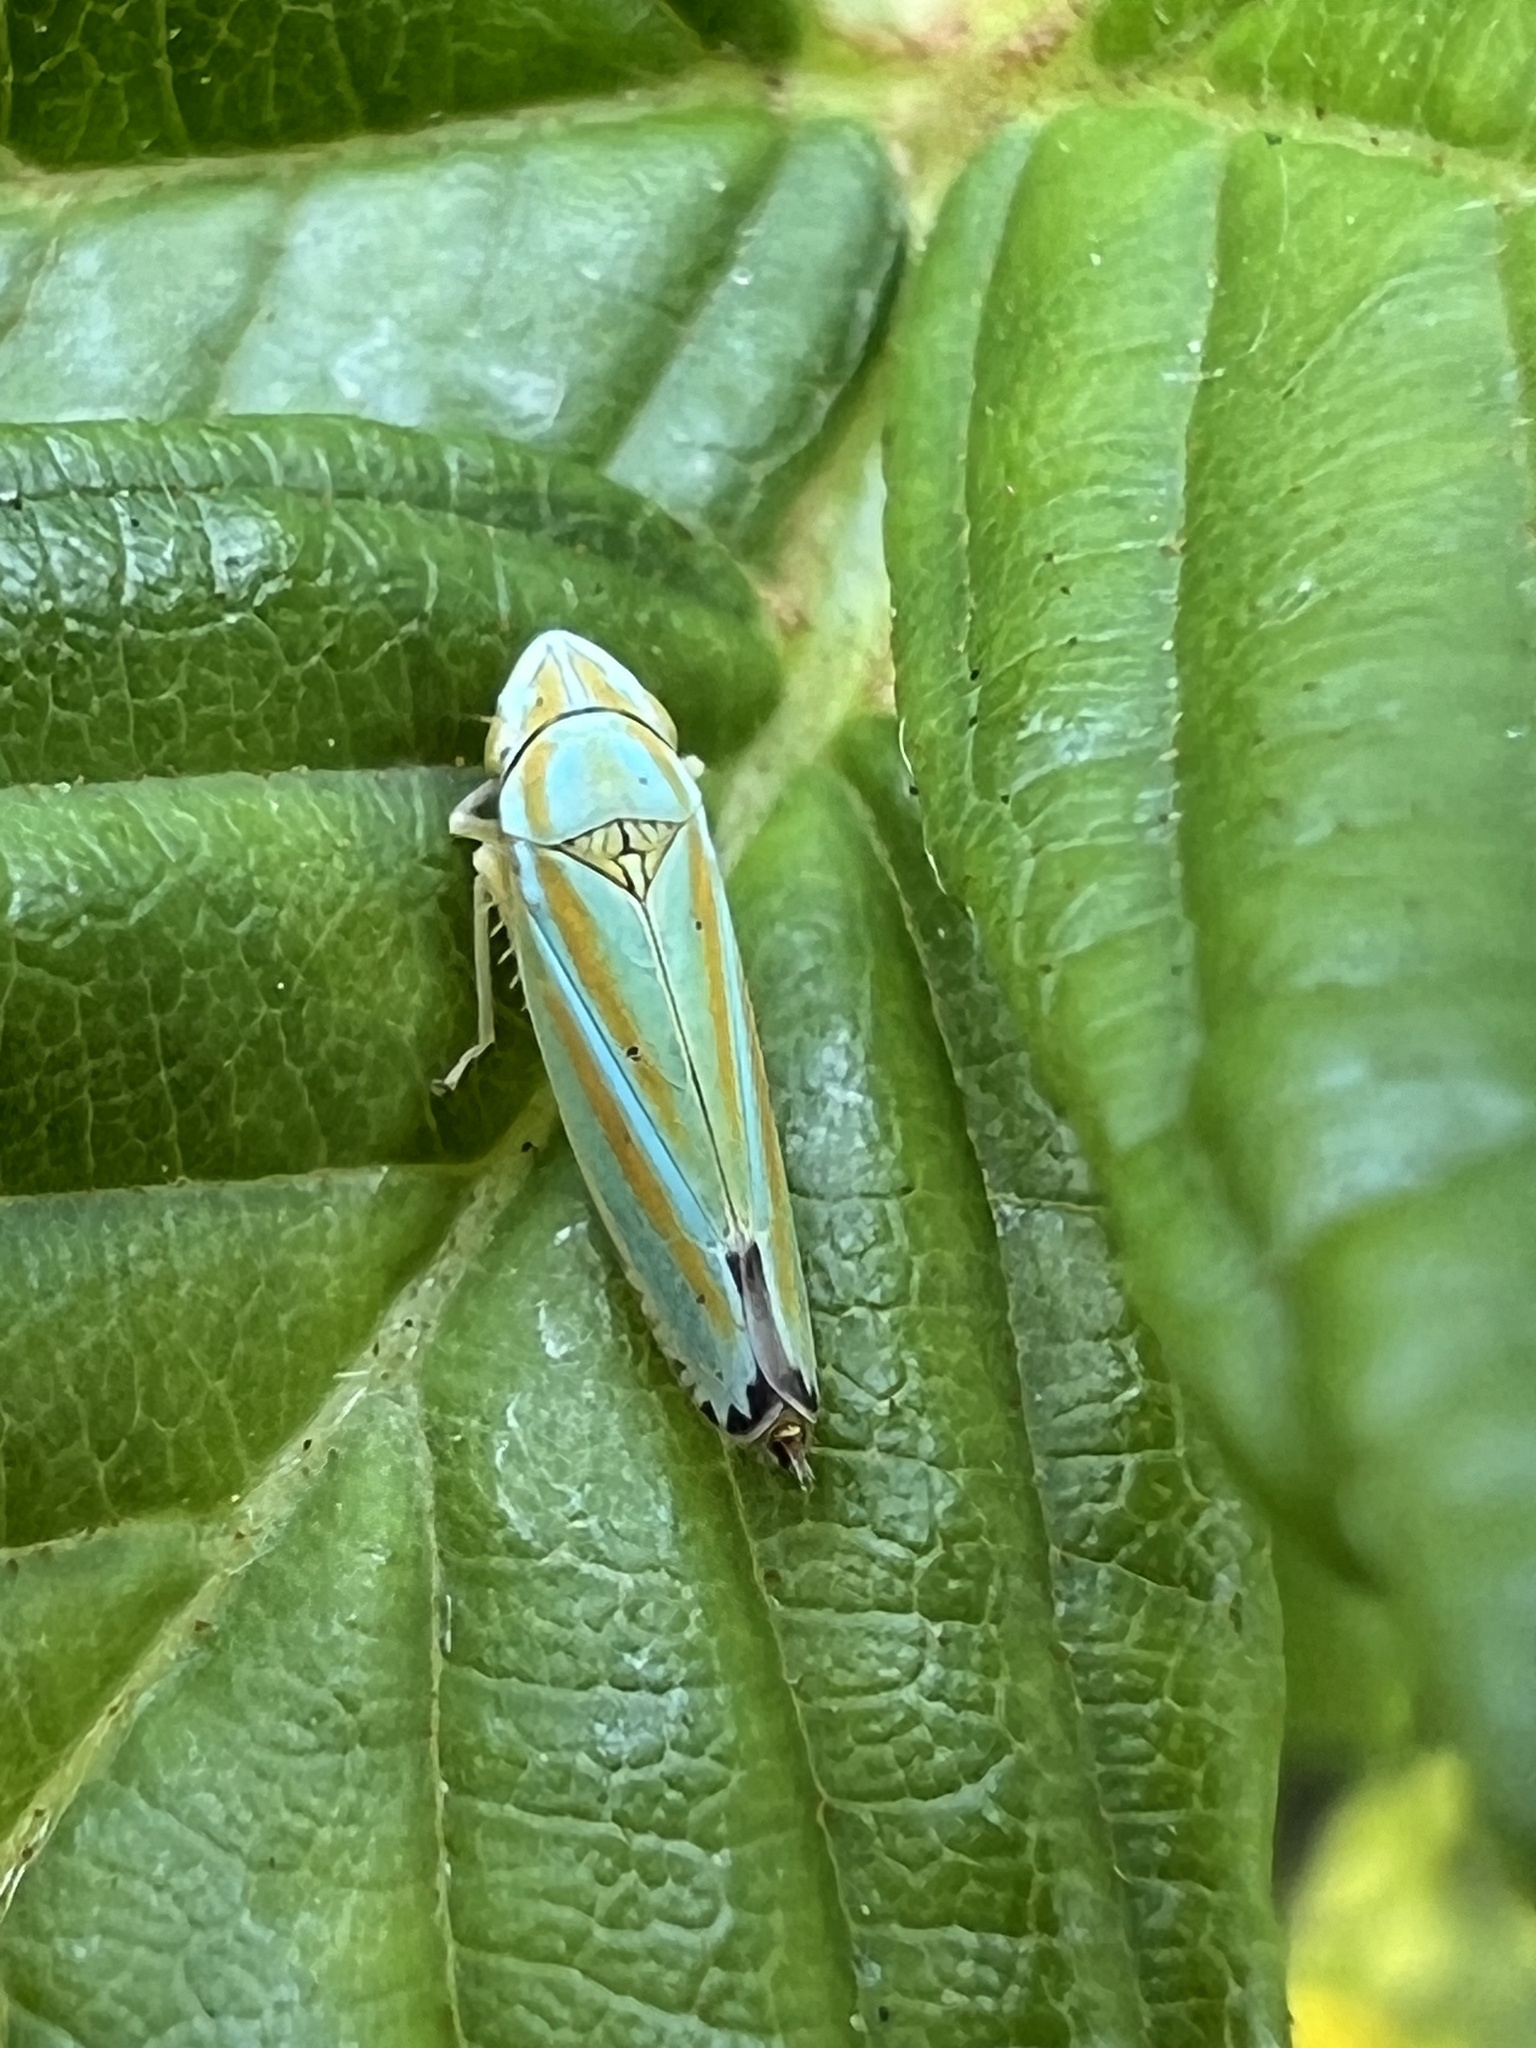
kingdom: Animalia
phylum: Arthropoda
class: Insecta
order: Hemiptera
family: Cicadellidae
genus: Graphocephala
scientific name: Graphocephala versuta
